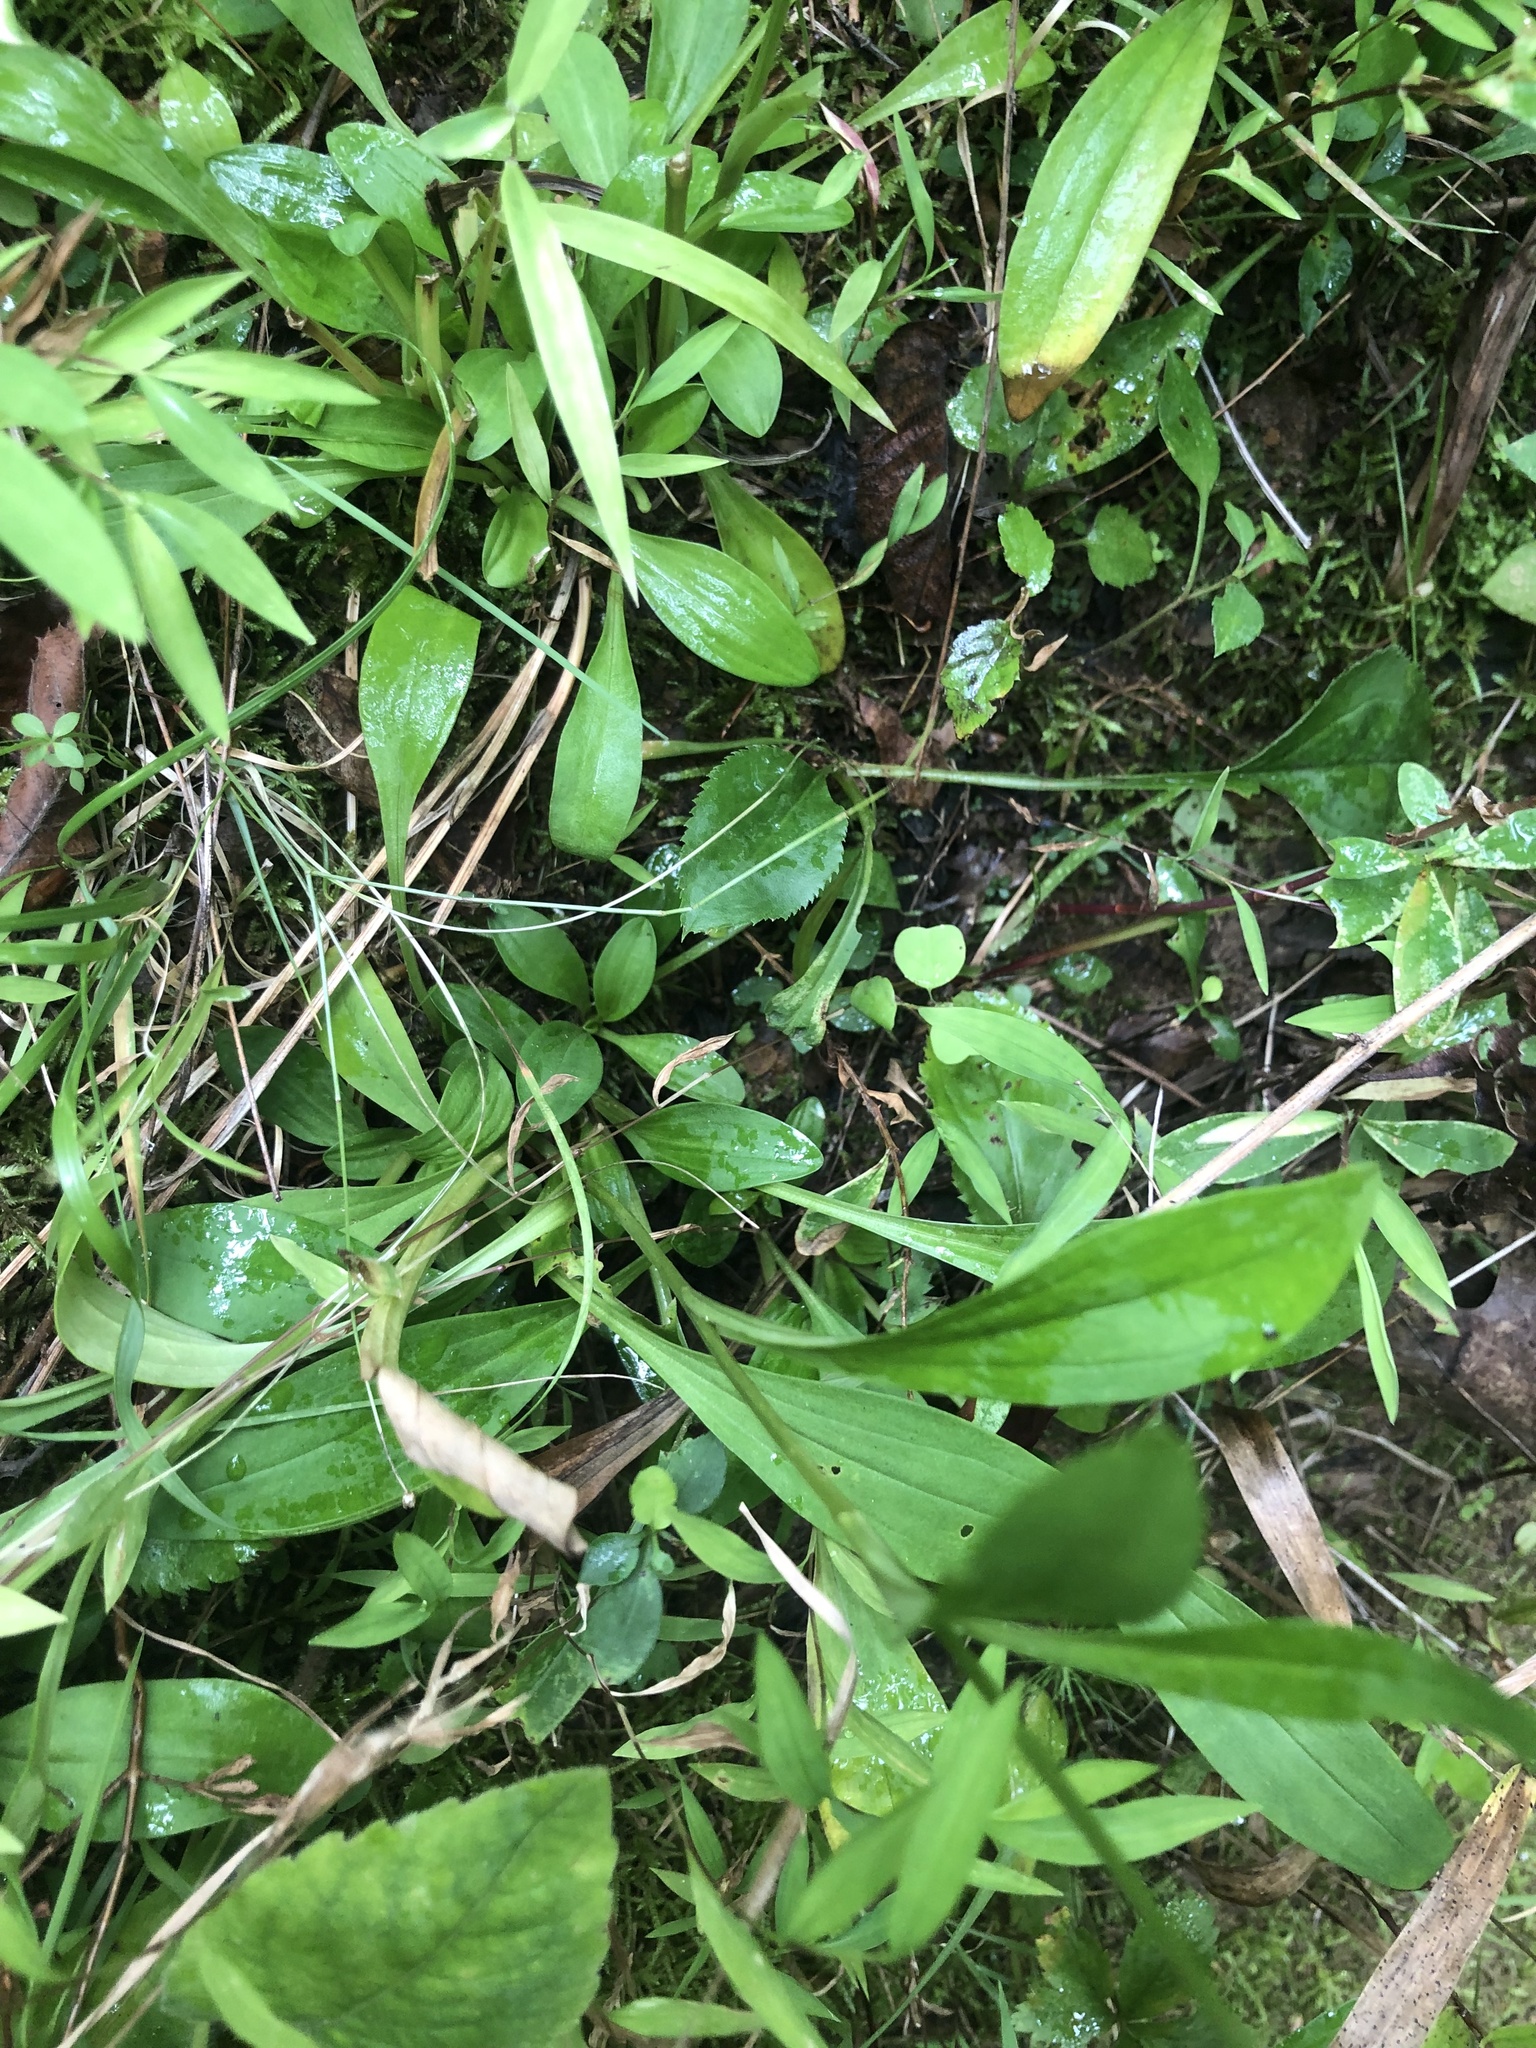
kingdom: Plantae
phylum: Tracheophyta
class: Magnoliopsida
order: Asterales
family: Asteraceae
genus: Marshallia
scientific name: Marshallia obovata
